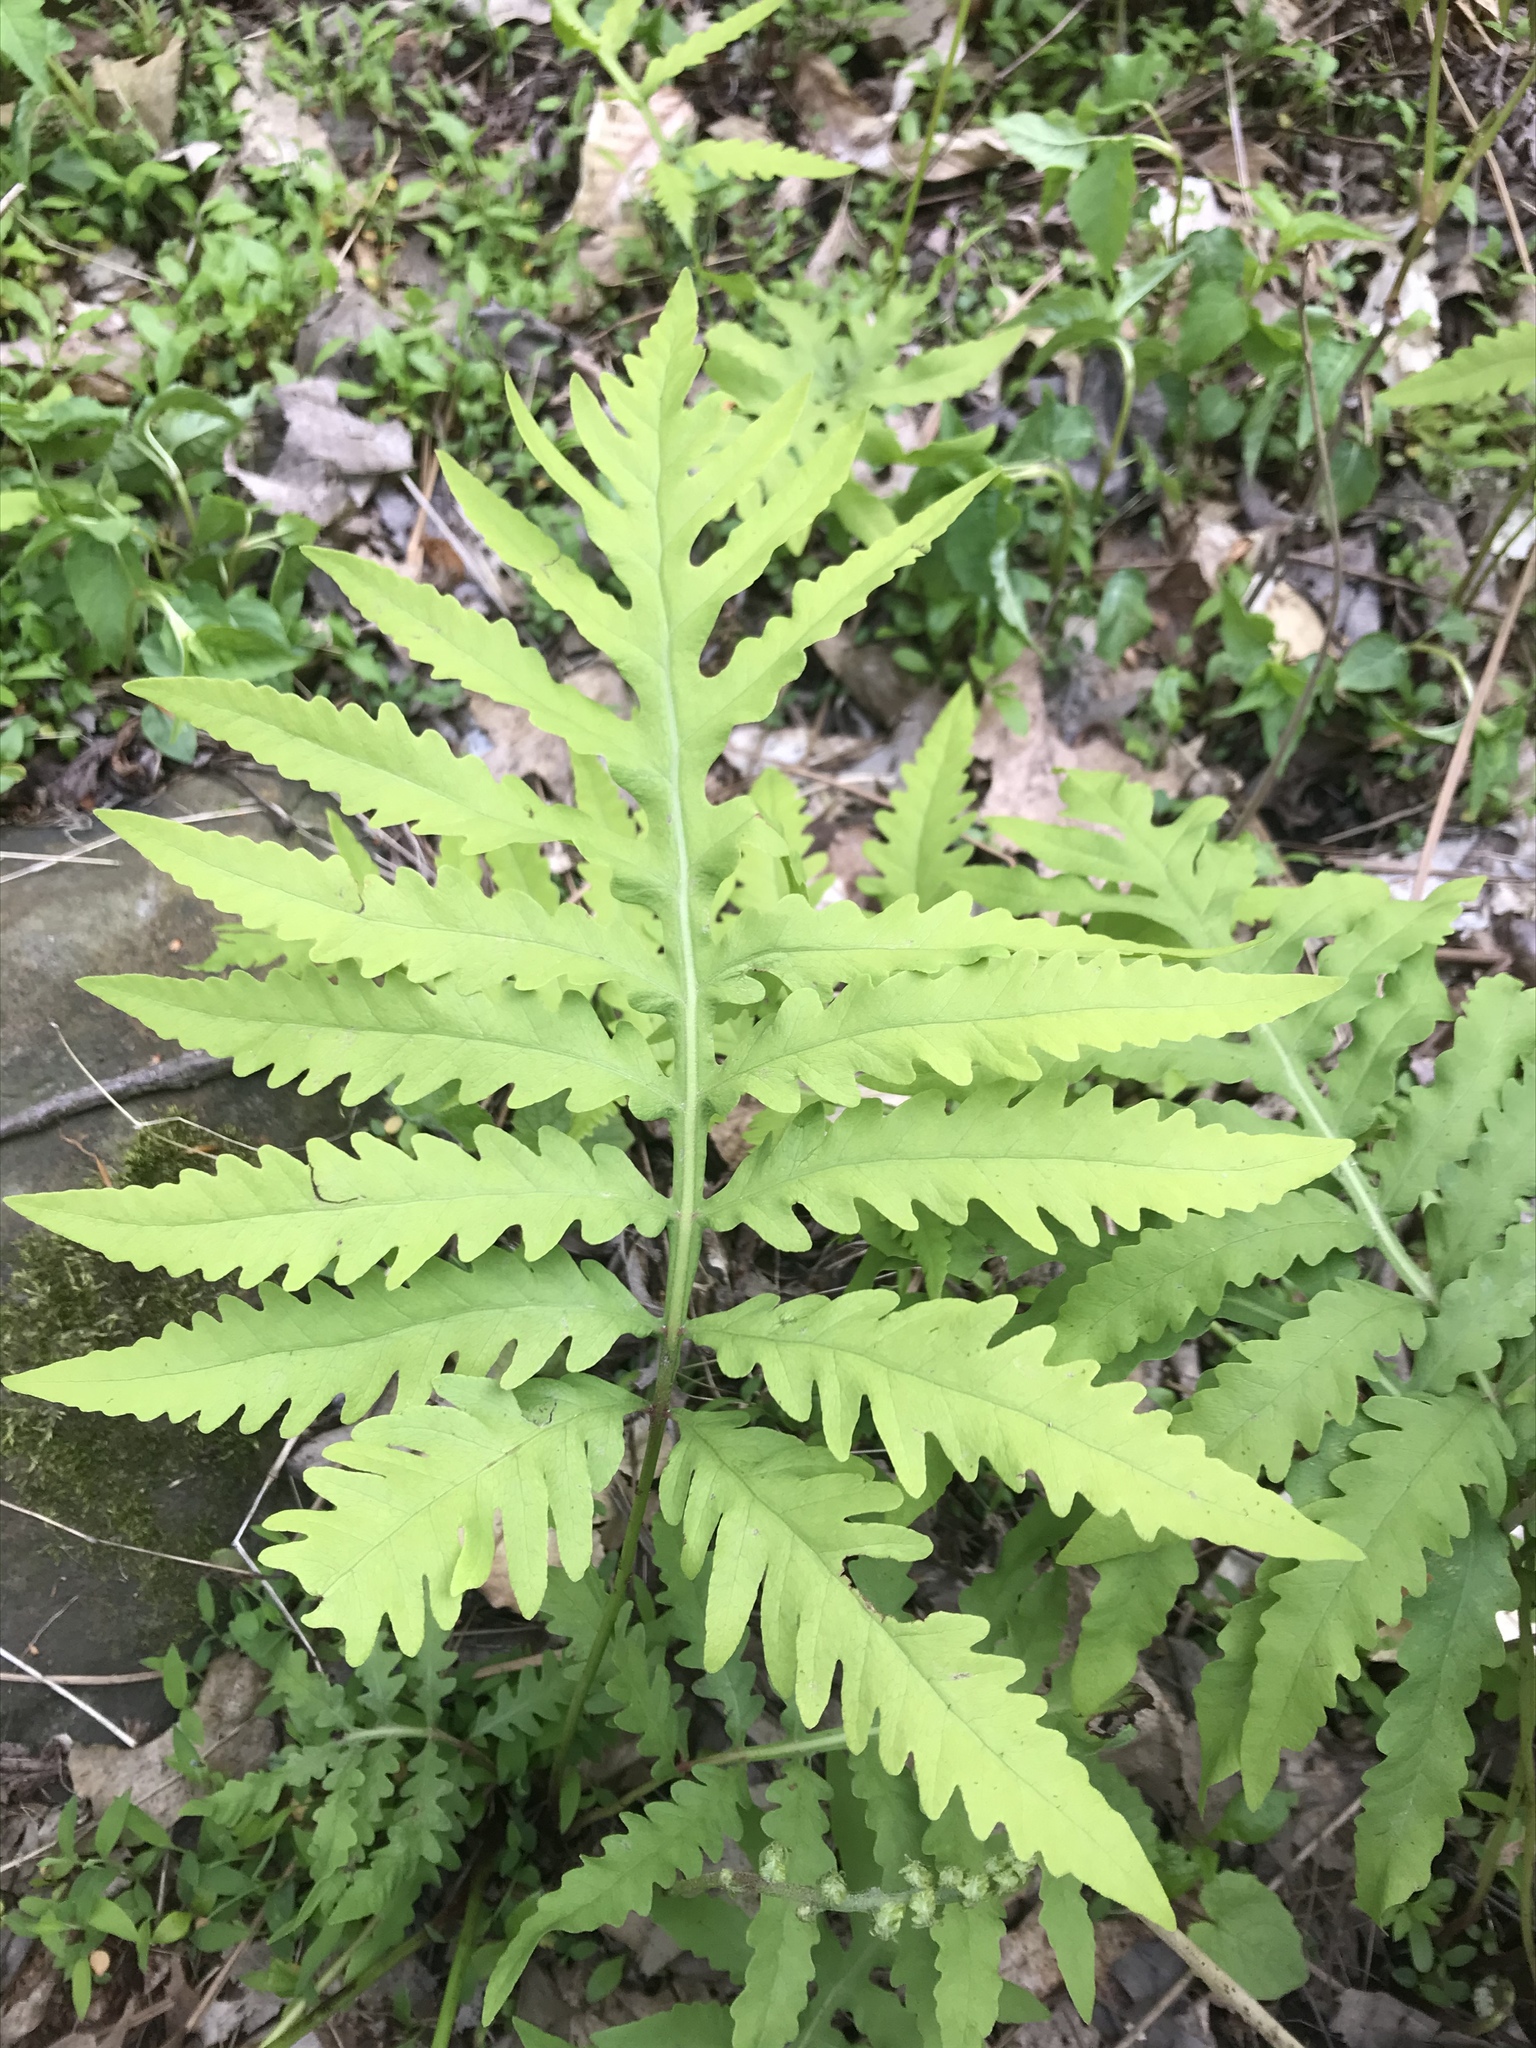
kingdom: Plantae
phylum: Tracheophyta
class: Polypodiopsida
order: Polypodiales
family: Onocleaceae
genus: Onoclea
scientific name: Onoclea sensibilis
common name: Sensitive fern
